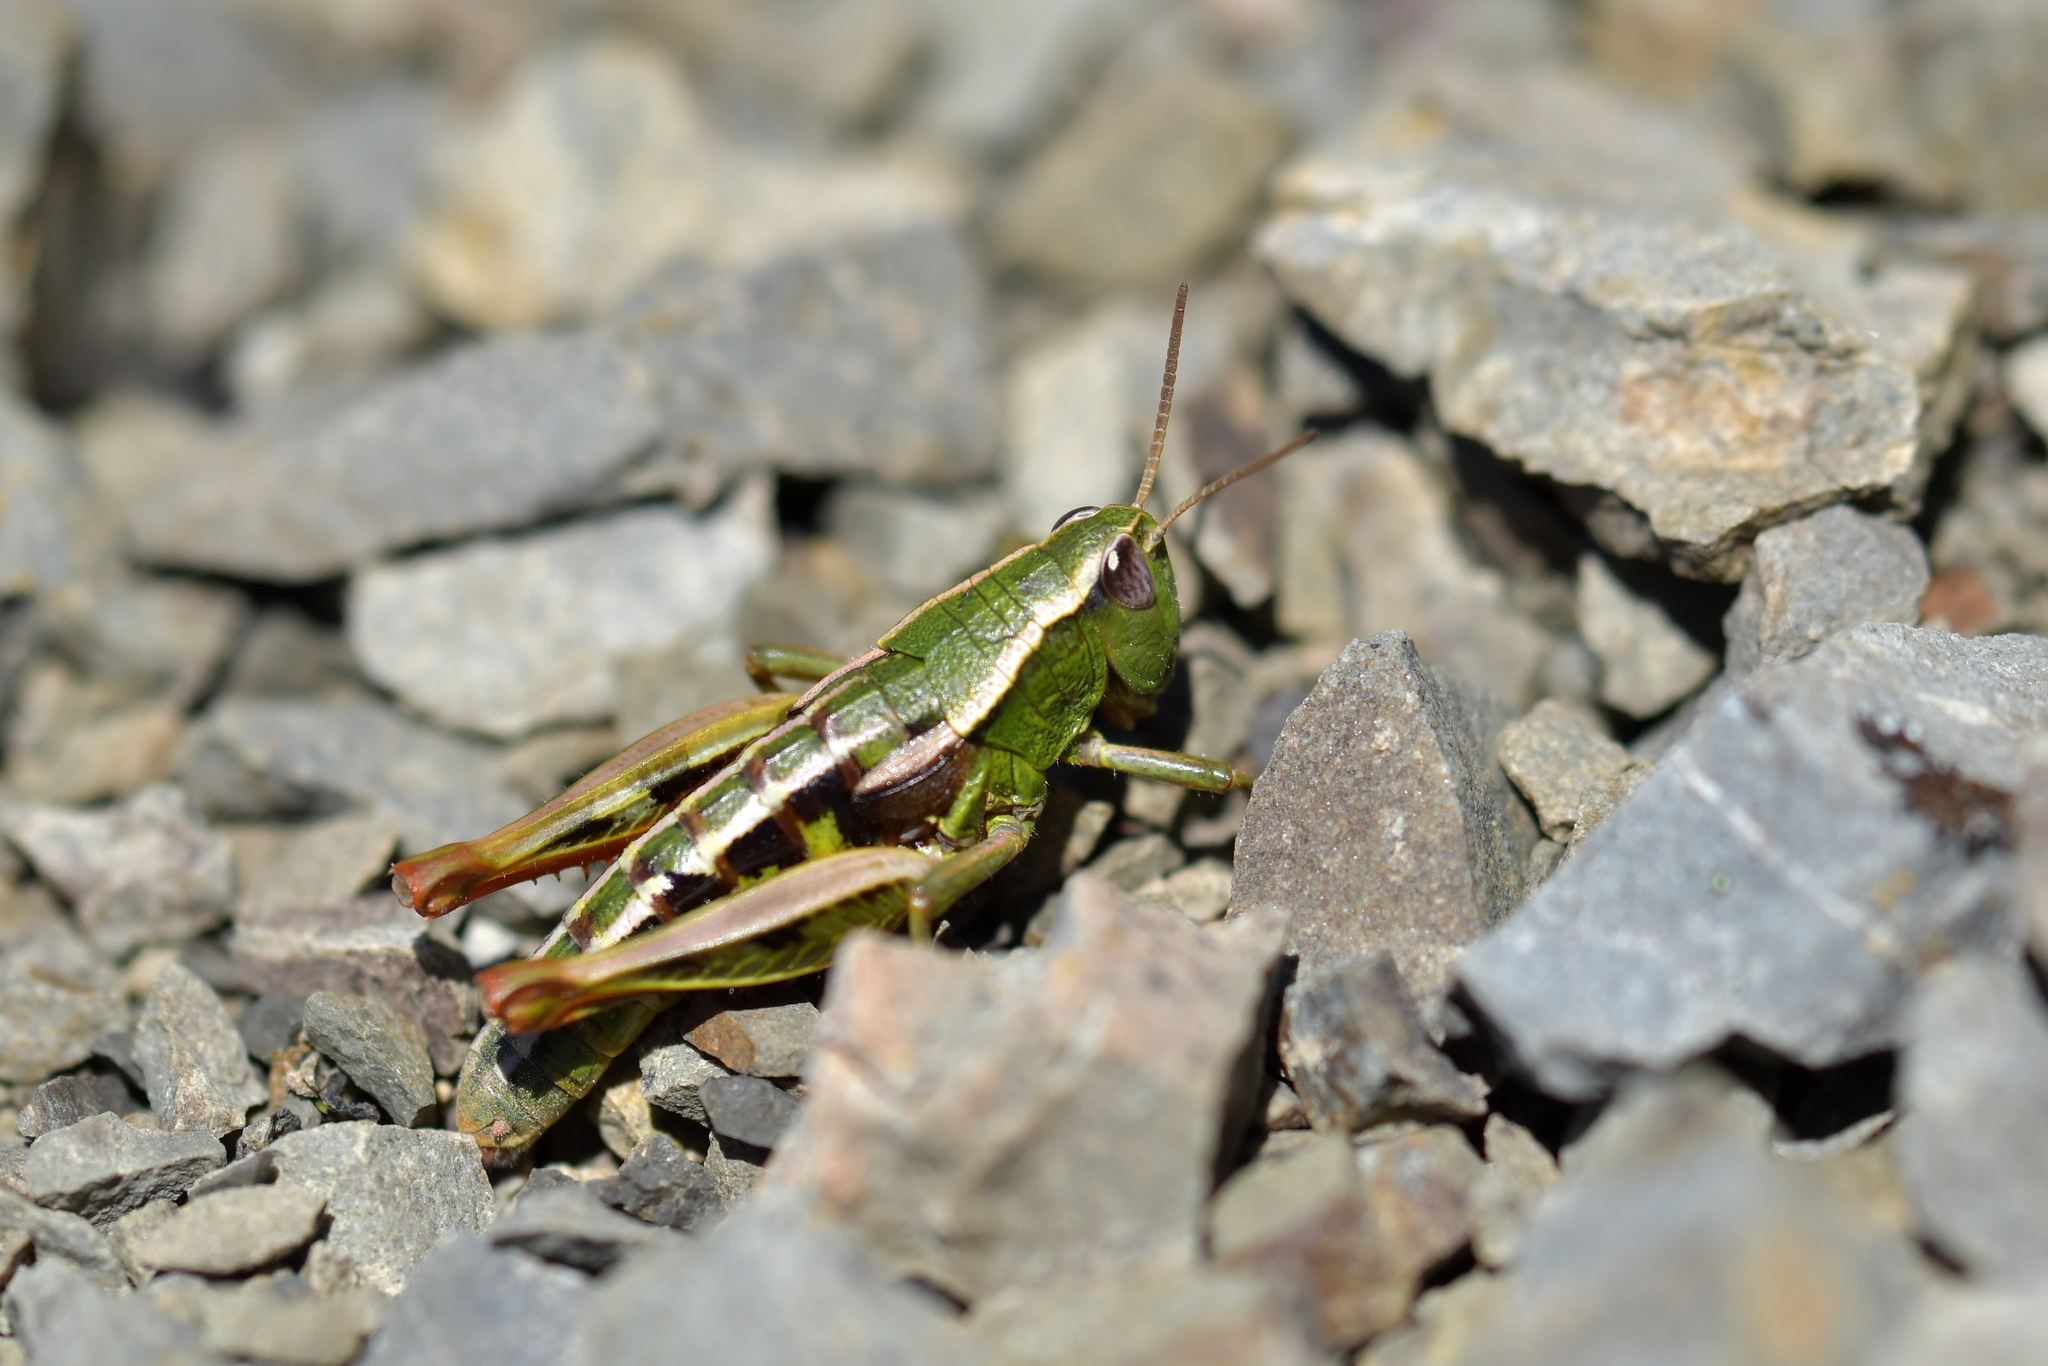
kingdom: Animalia
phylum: Arthropoda
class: Insecta
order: Orthoptera
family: Acrididae
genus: Sigaus
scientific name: Sigaus
